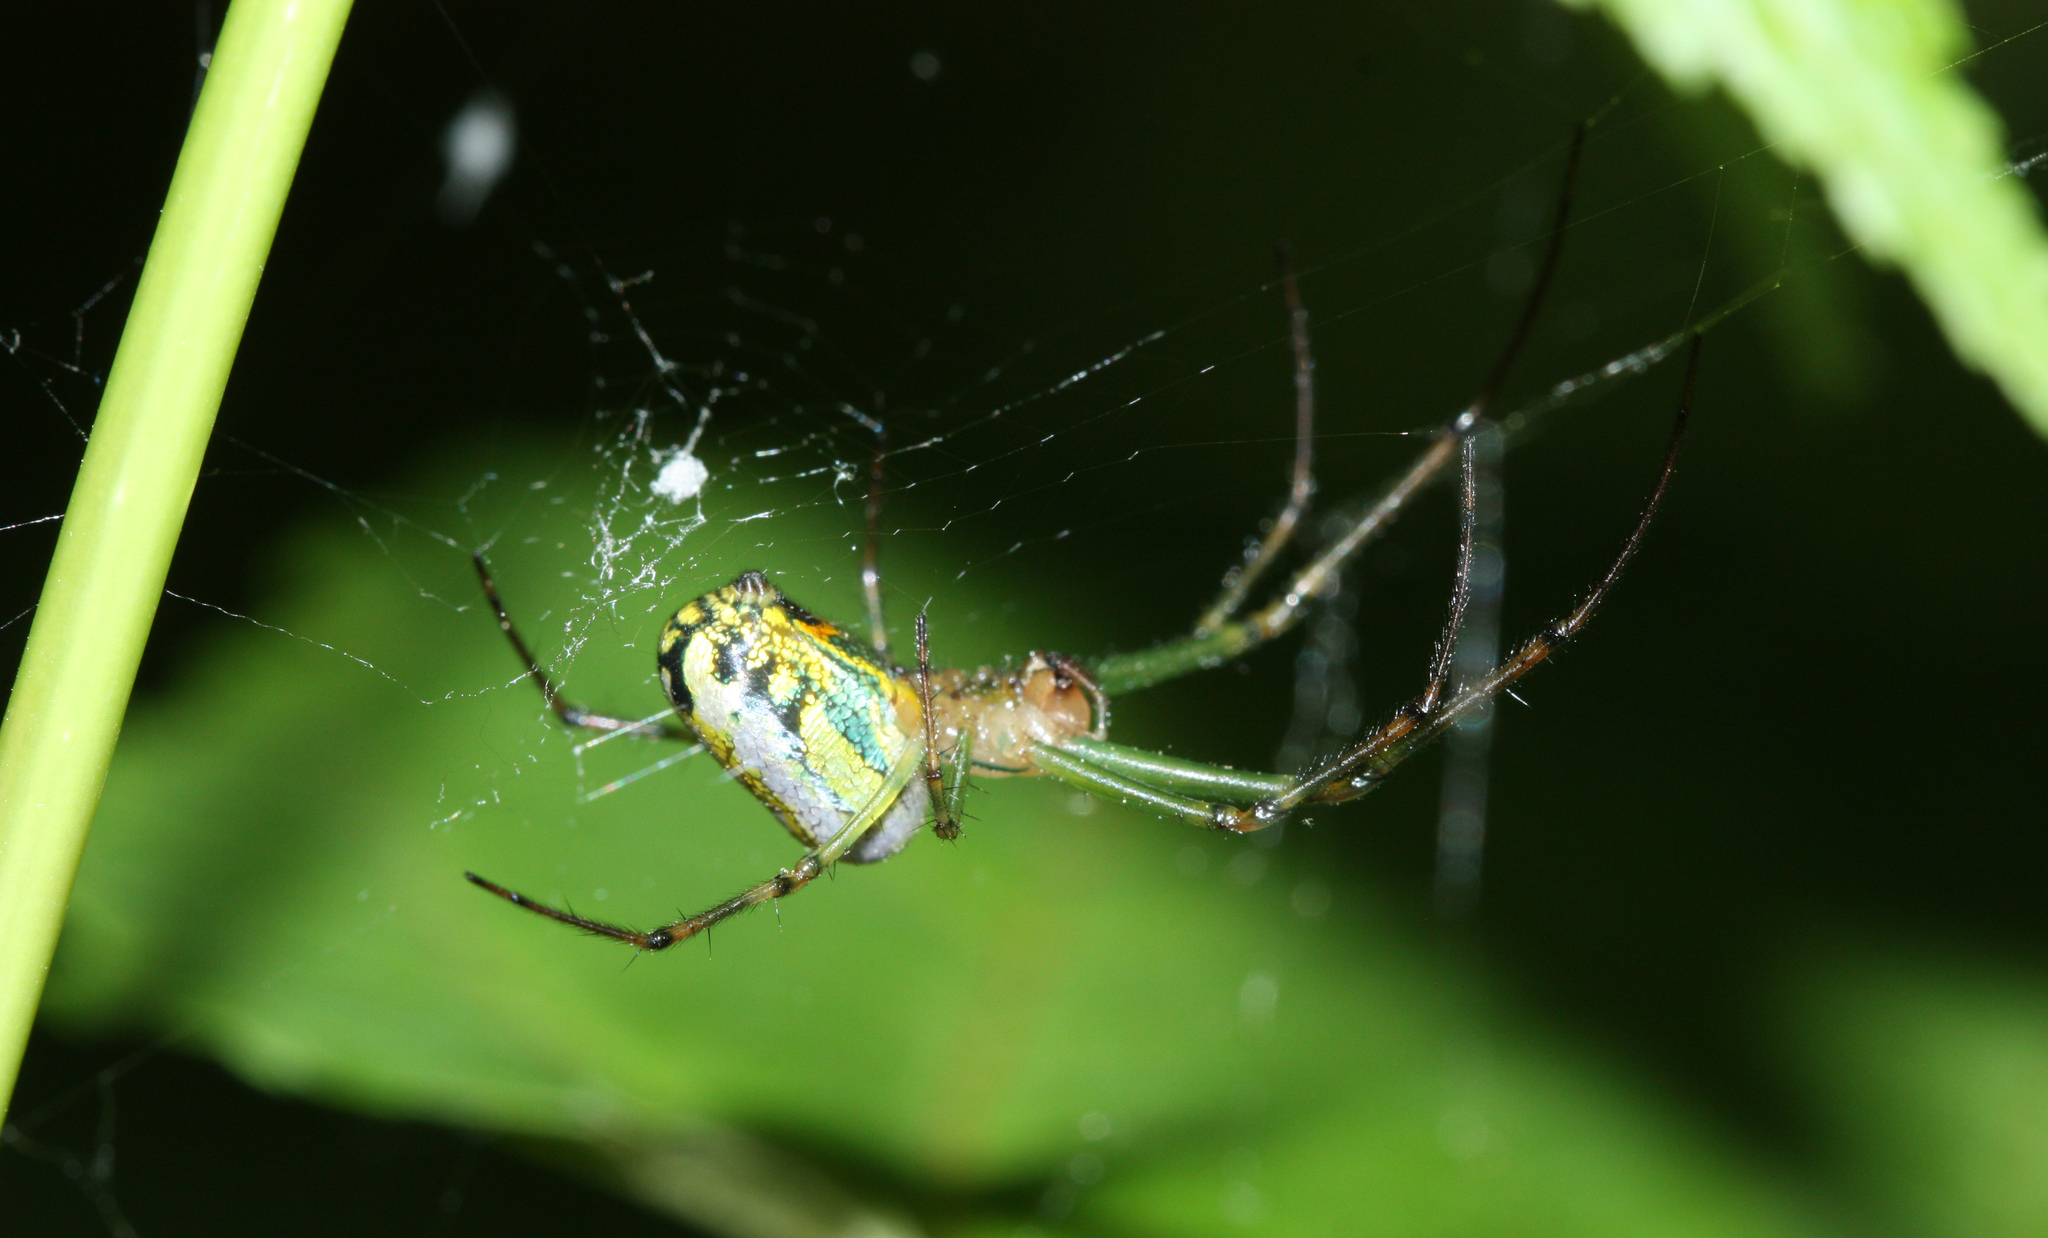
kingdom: Animalia
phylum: Arthropoda
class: Arachnida
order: Araneae
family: Tetragnathidae
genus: Leucauge
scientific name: Leucauge venusta
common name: Longjawed orb weavers
